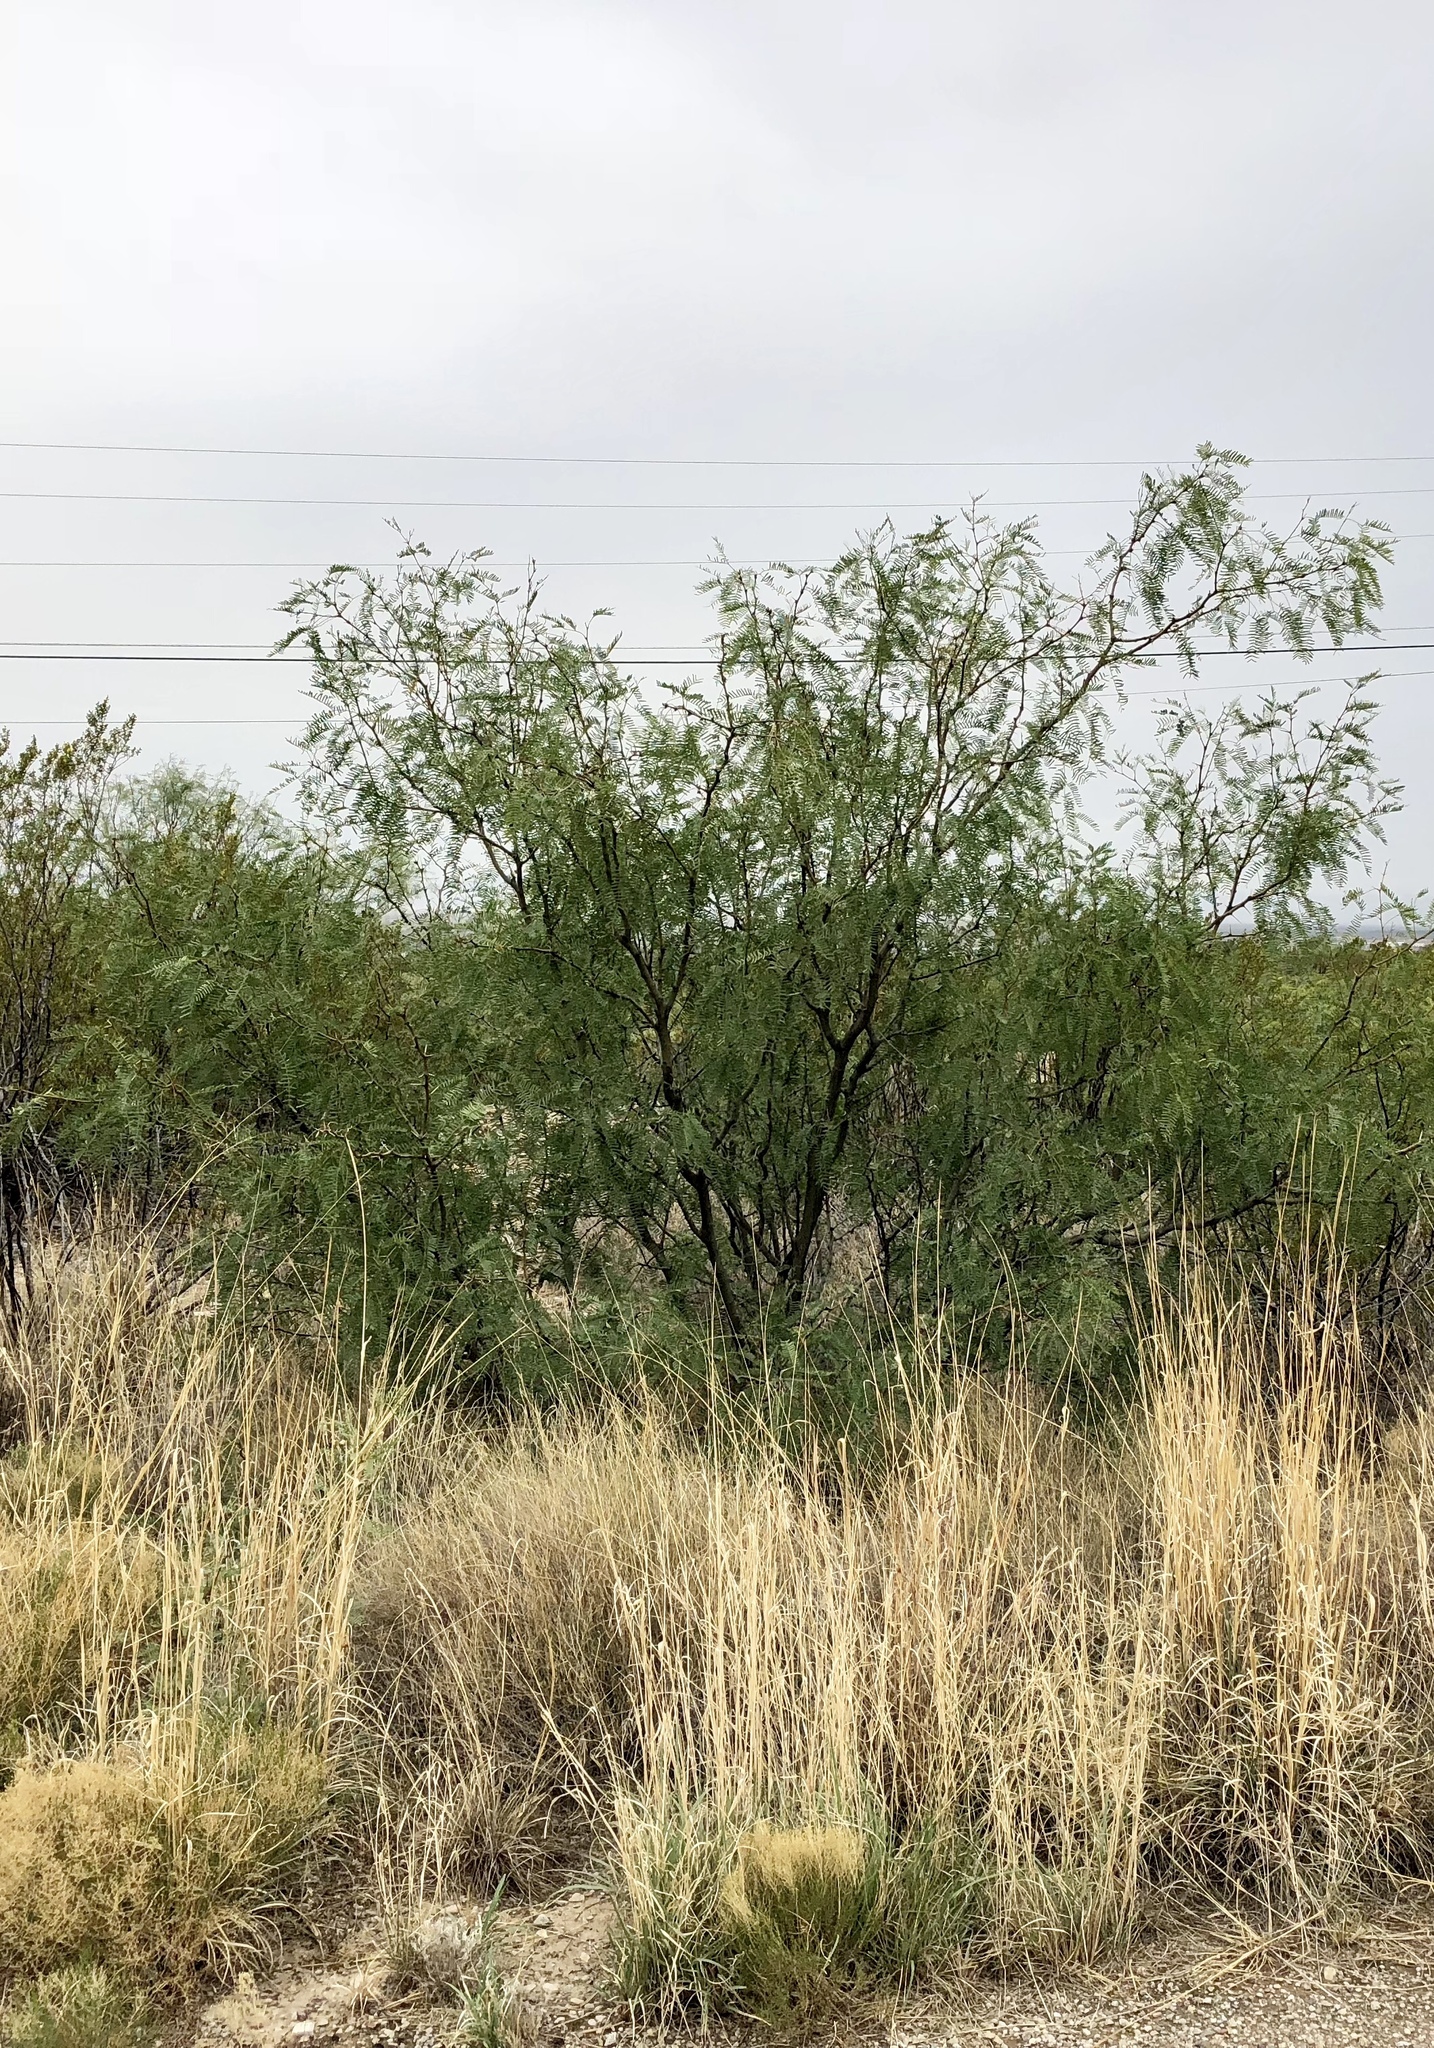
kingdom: Plantae
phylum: Tracheophyta
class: Magnoliopsida
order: Fabales
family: Fabaceae
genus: Prosopis
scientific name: Prosopis glandulosa
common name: Honey mesquite
